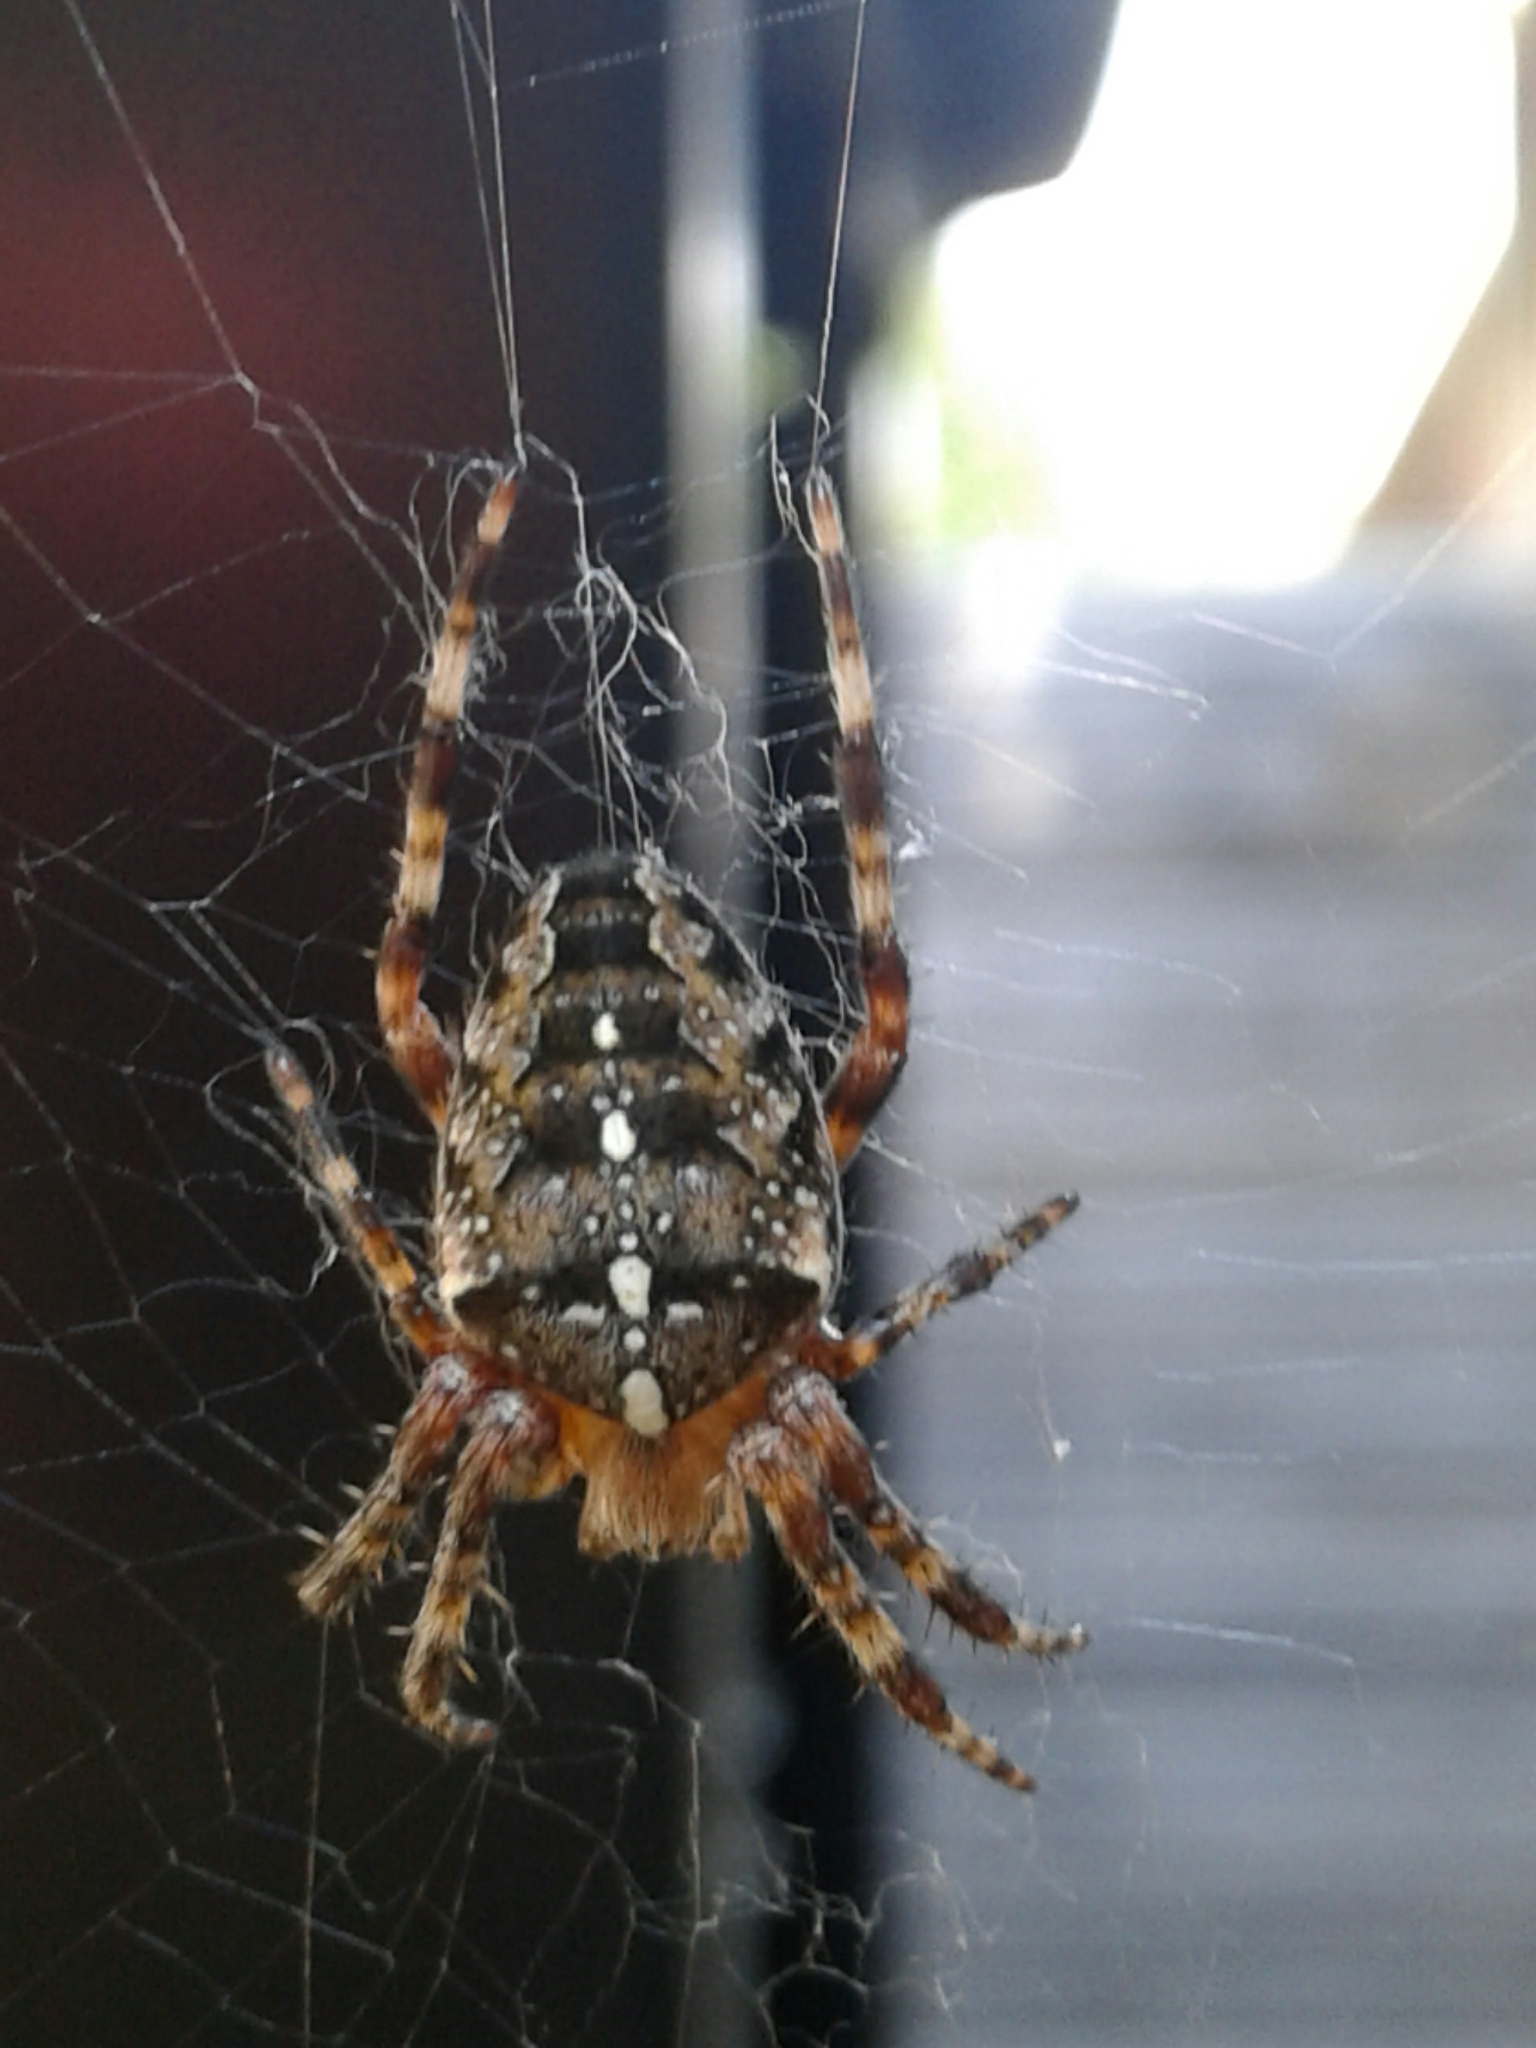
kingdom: Animalia
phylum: Arthropoda
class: Arachnida
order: Araneae
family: Araneidae
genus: Araneus
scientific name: Araneus diadematus
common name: Cross orbweaver
